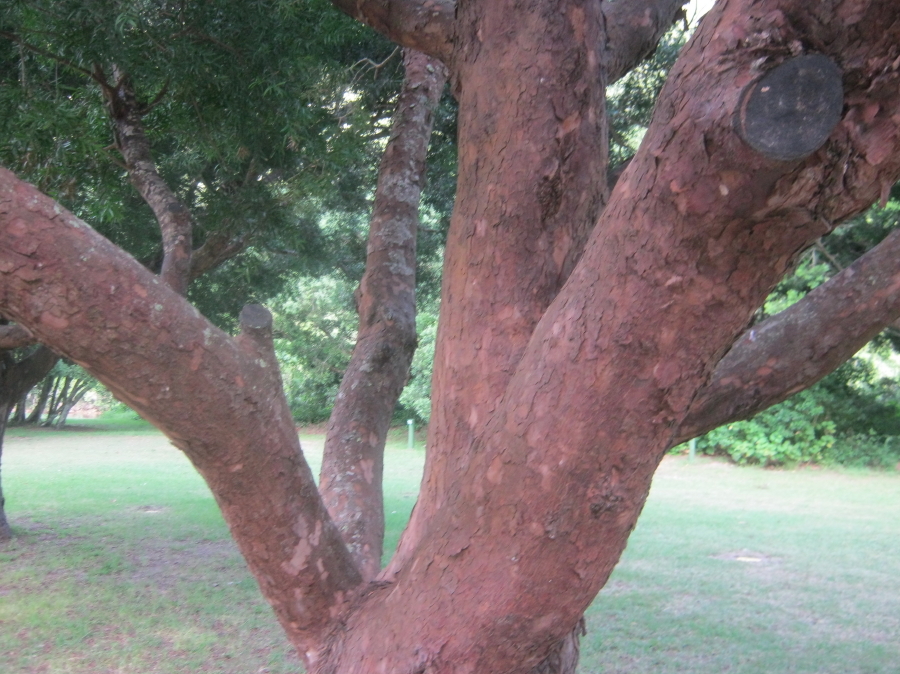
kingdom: Plantae
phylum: Tracheophyta
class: Pinopsida
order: Pinales
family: Podocarpaceae
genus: Afrocarpus
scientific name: Afrocarpus falcatus
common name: Bastard yellowwood
